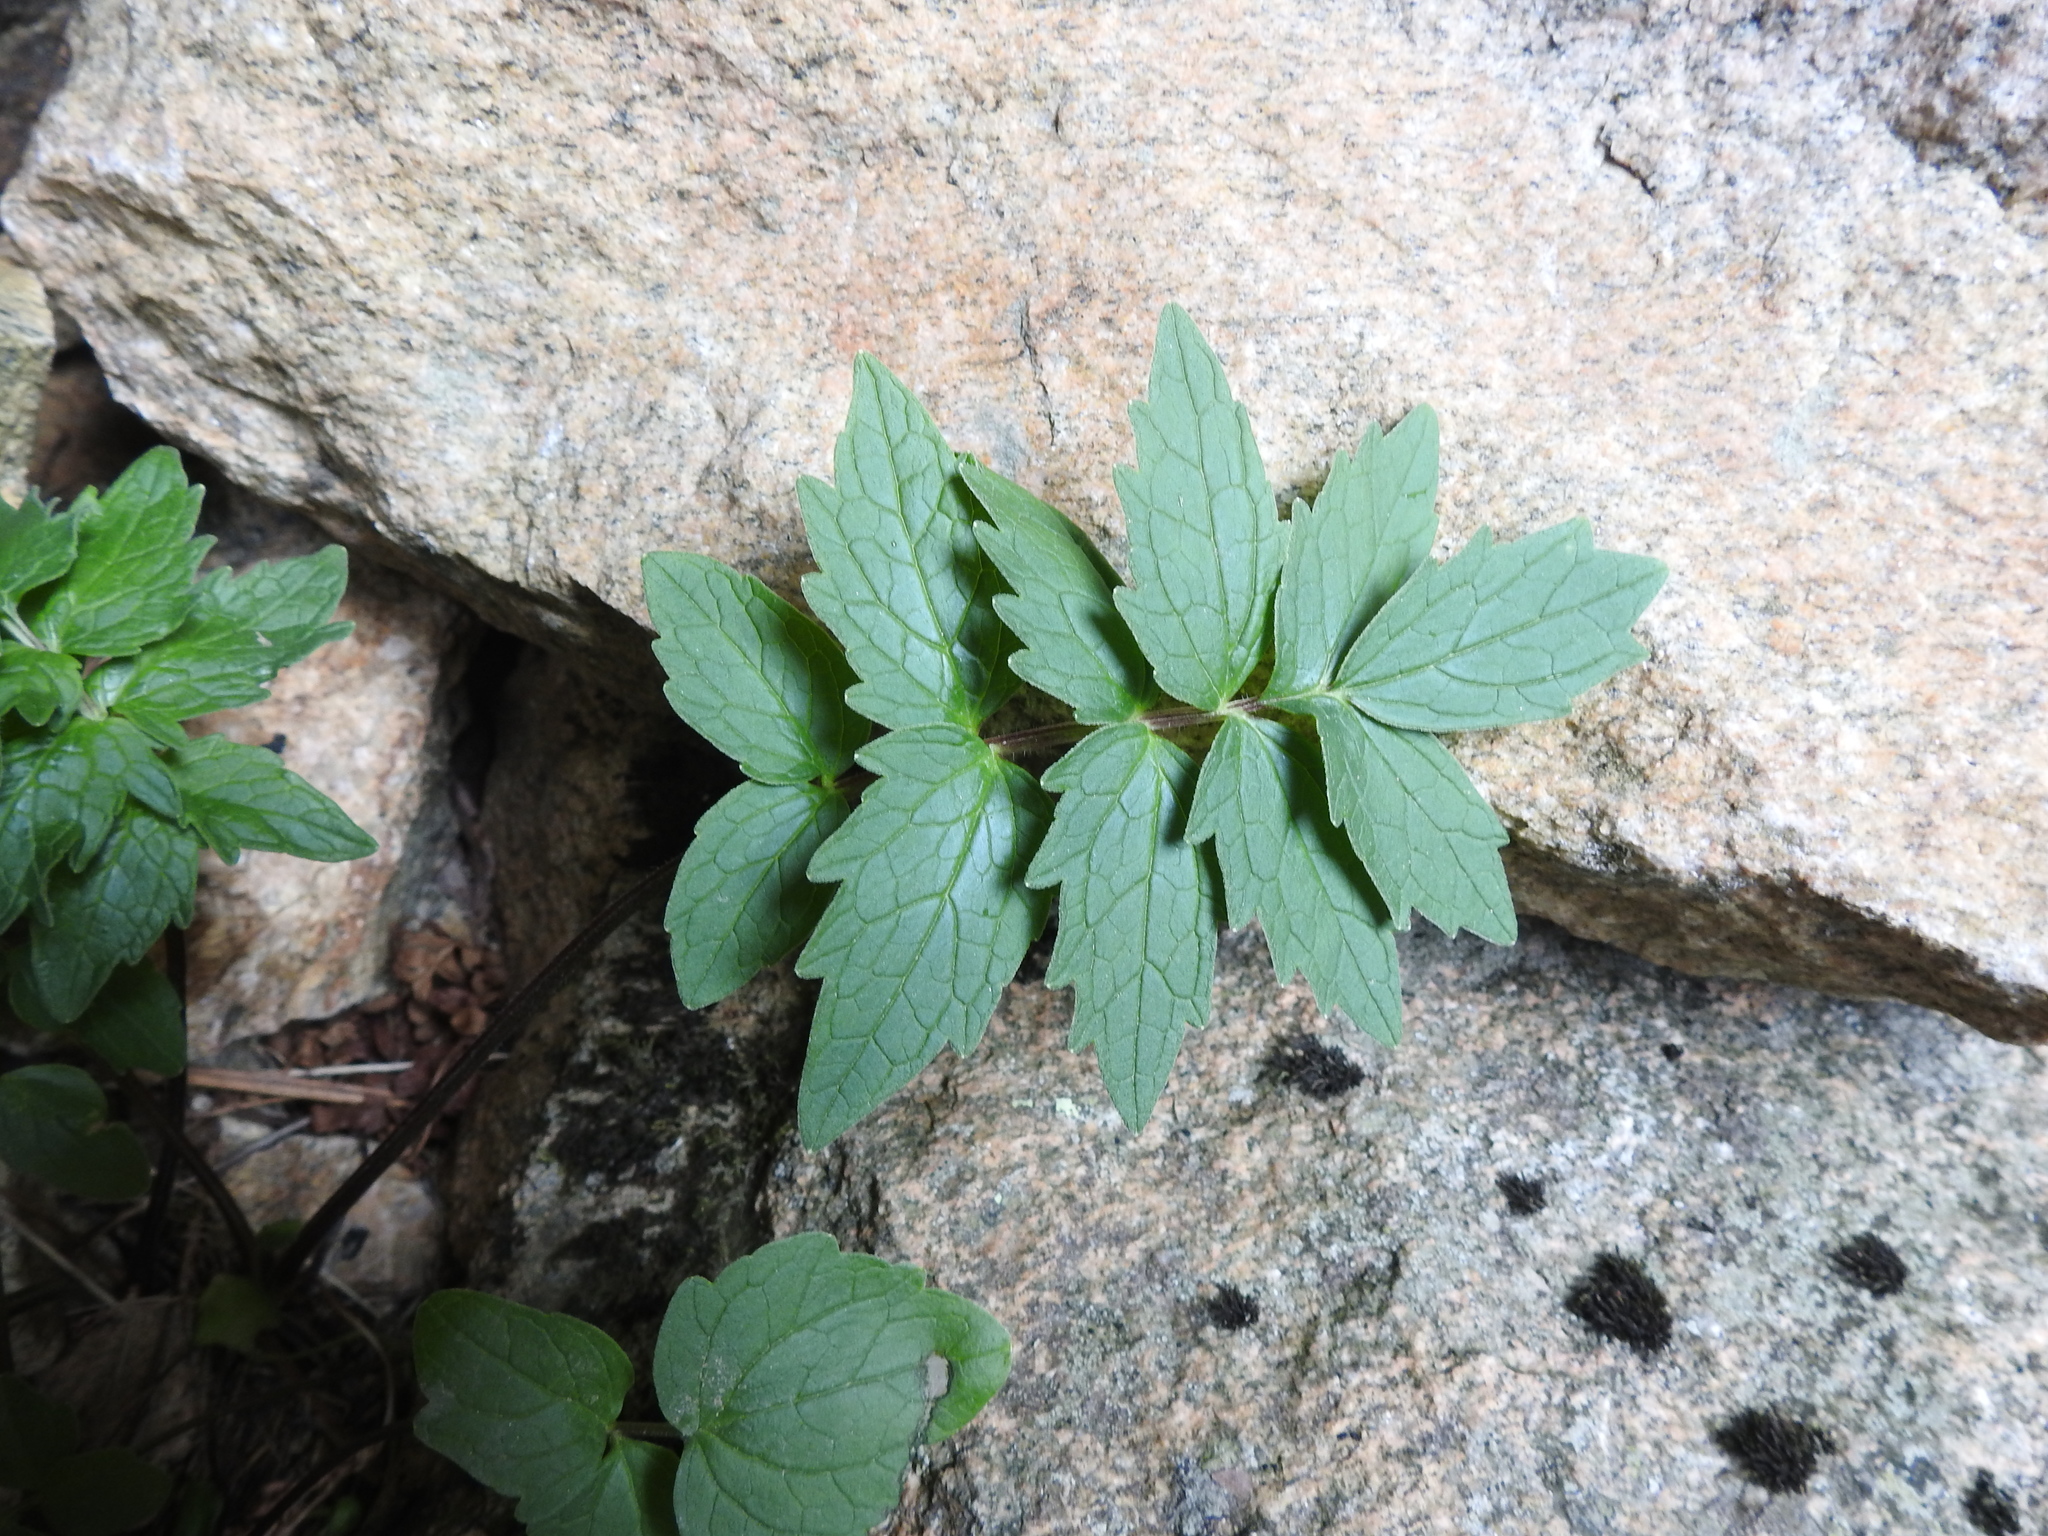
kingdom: Plantae
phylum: Tracheophyta
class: Magnoliopsida
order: Dipsacales
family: Caprifoliaceae
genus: Valeriana
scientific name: Valeriana sambucifolia
